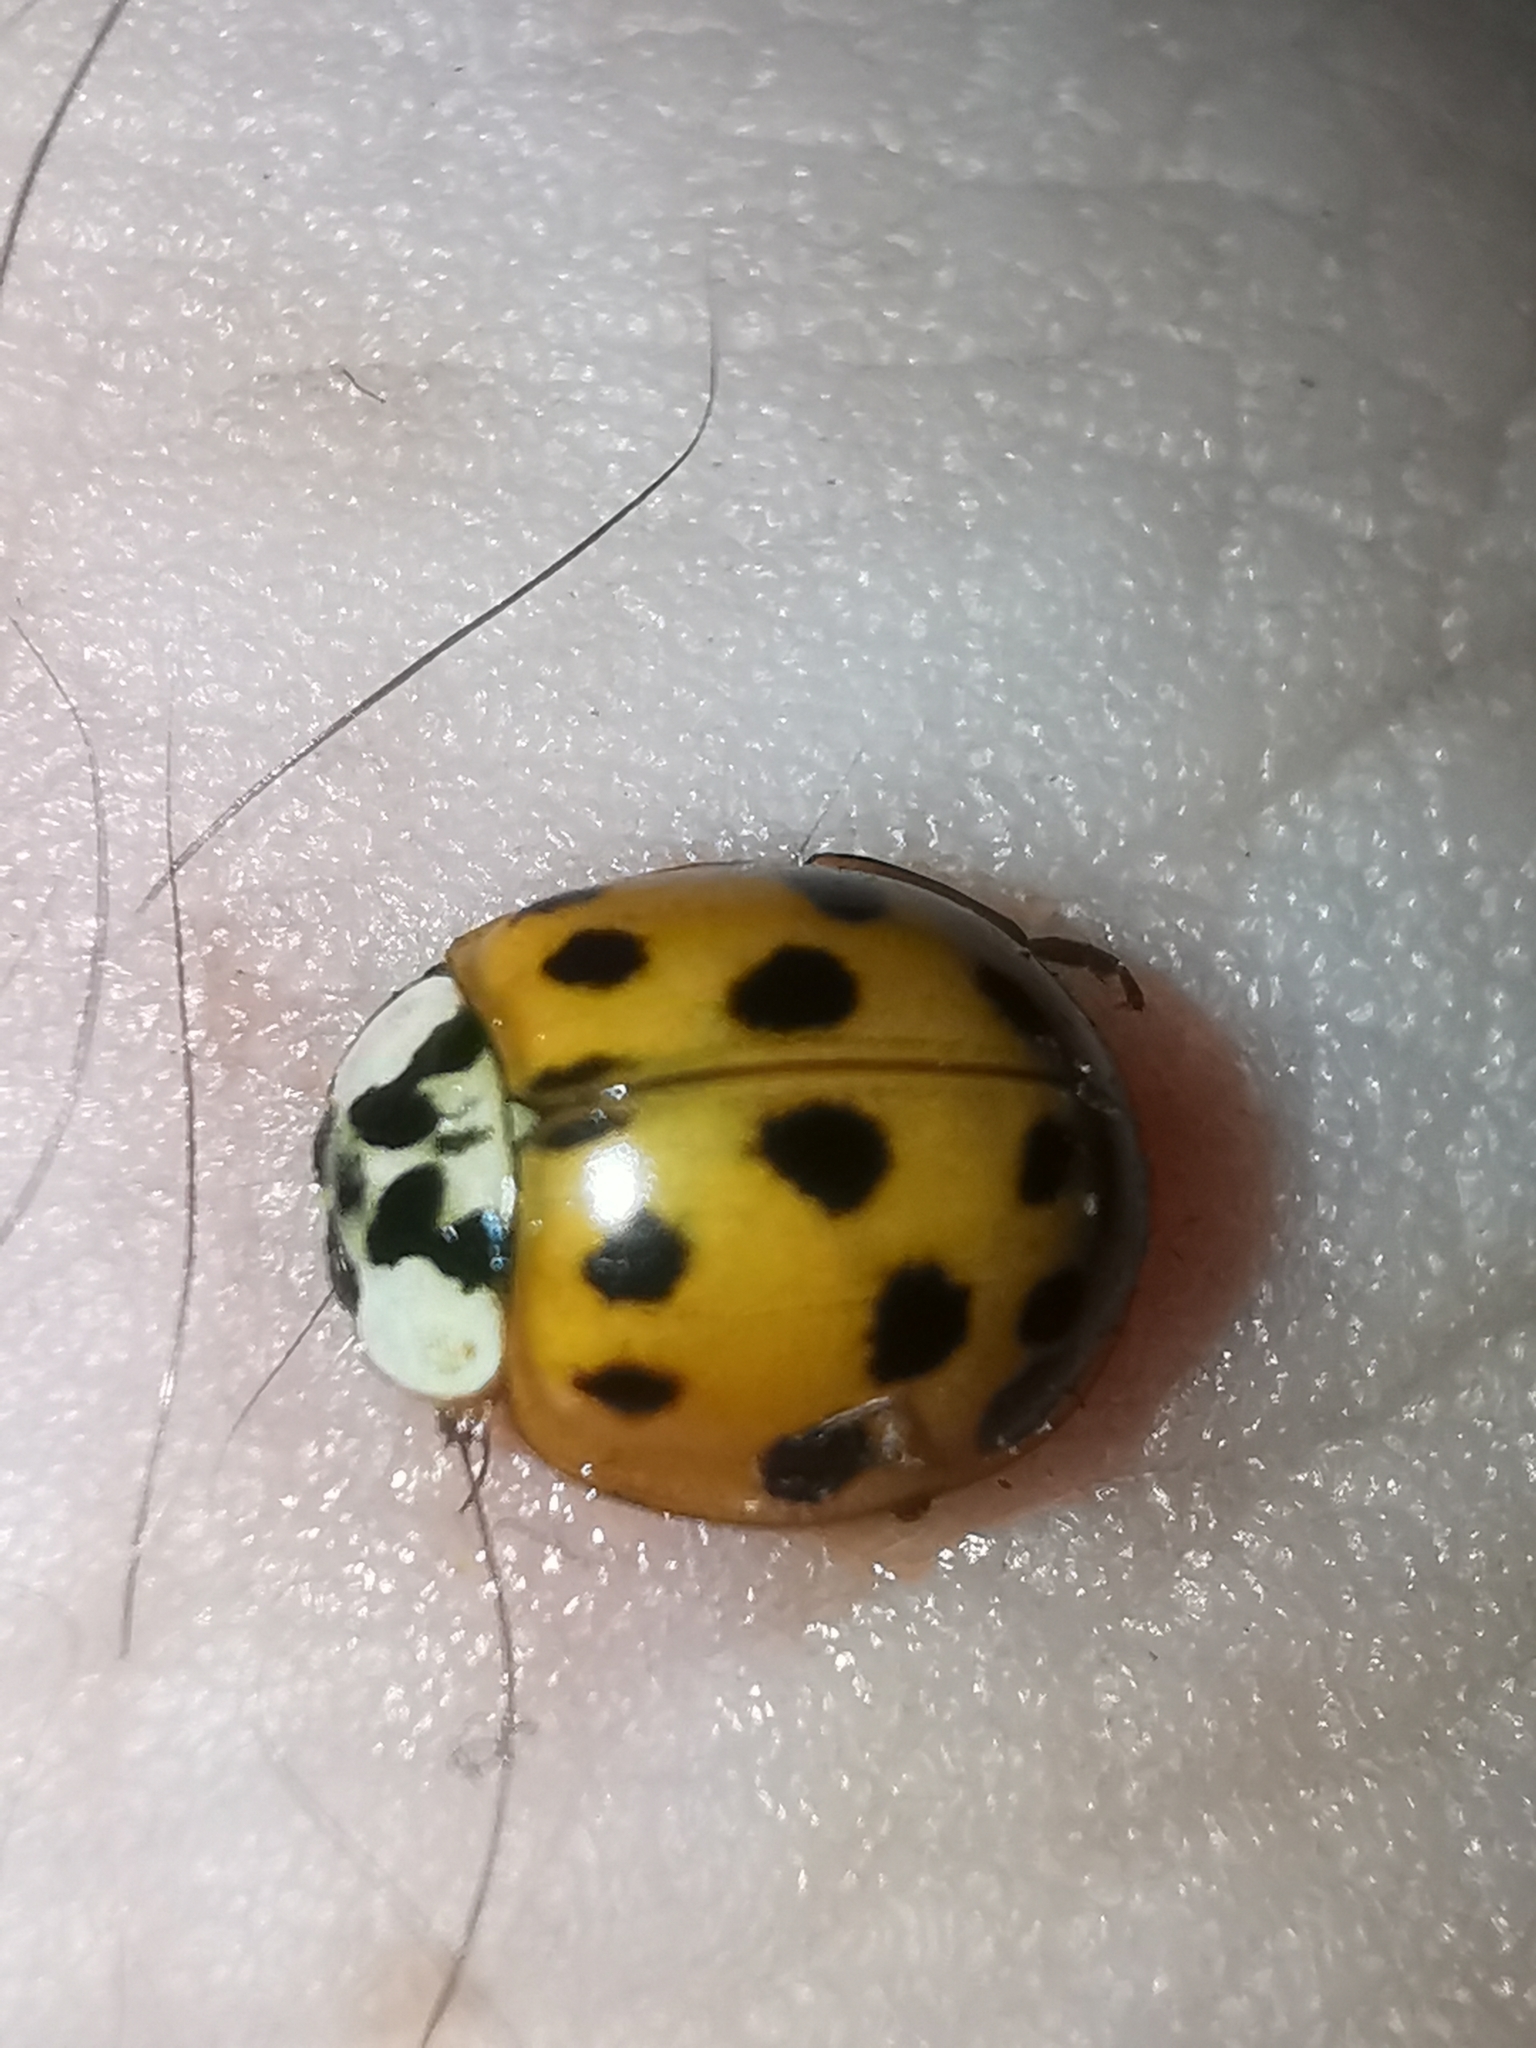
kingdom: Animalia
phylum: Arthropoda
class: Insecta
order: Coleoptera
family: Coccinellidae
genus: Harmonia
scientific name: Harmonia axyridis
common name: Harlequin ladybird
